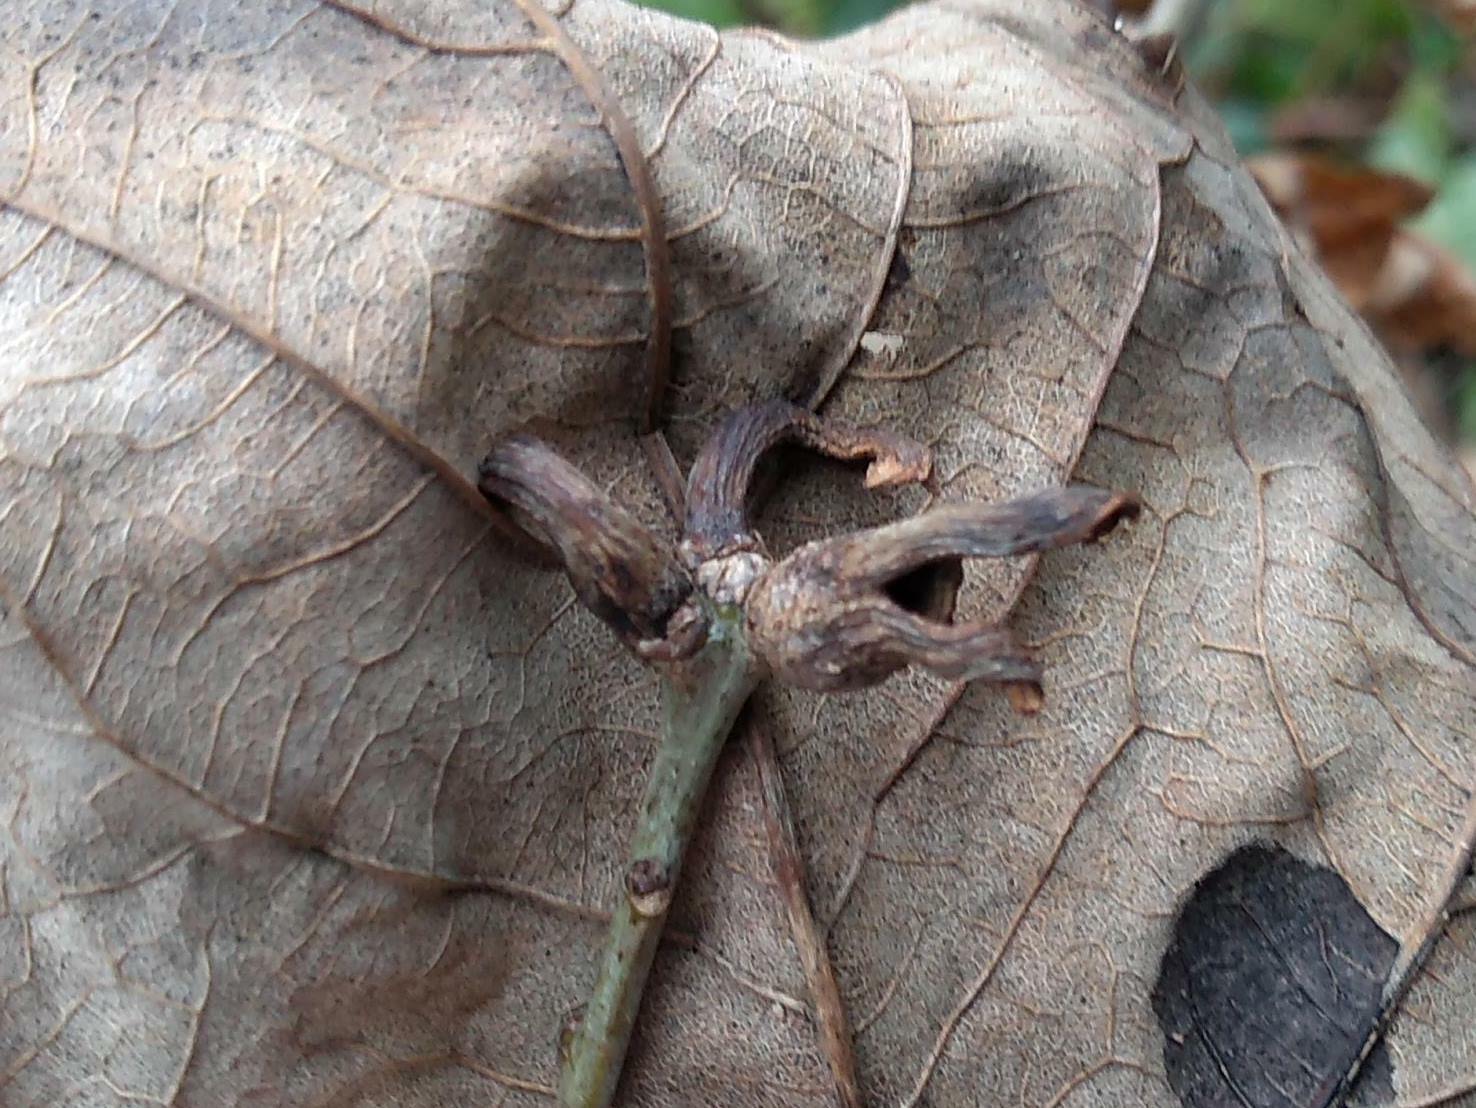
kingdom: Animalia
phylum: Arthropoda
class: Insecta
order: Hymenoptera
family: Cynipidae
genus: Andricus
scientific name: Andricus aries
